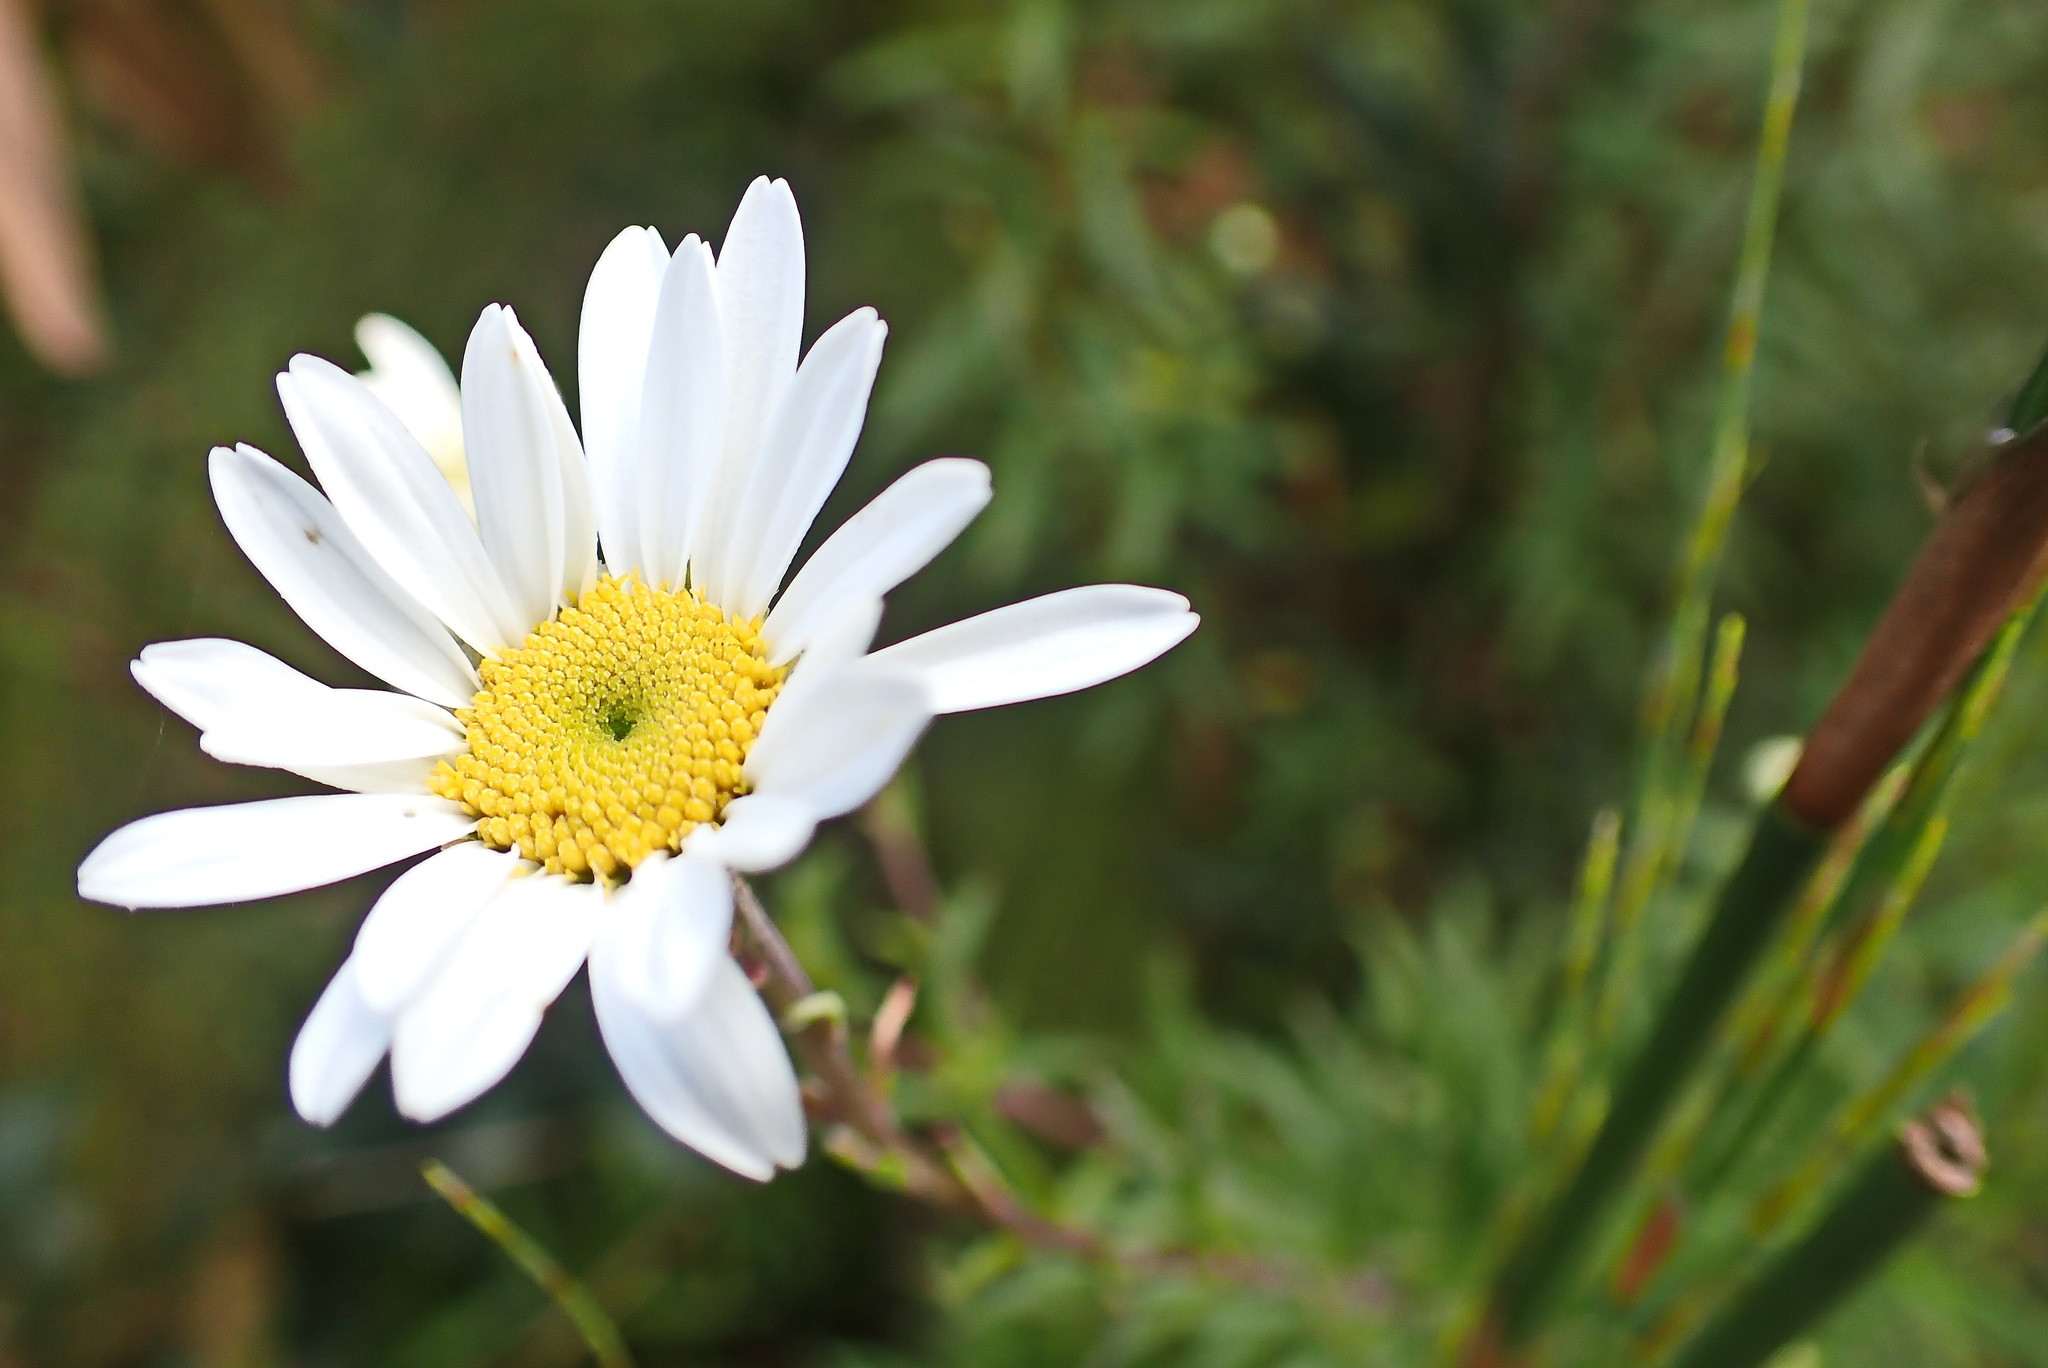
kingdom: Plantae
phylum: Tracheophyta
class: Magnoliopsida
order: Asterales
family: Asteraceae
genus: Osmitopsis
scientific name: Osmitopsis osmitoides
